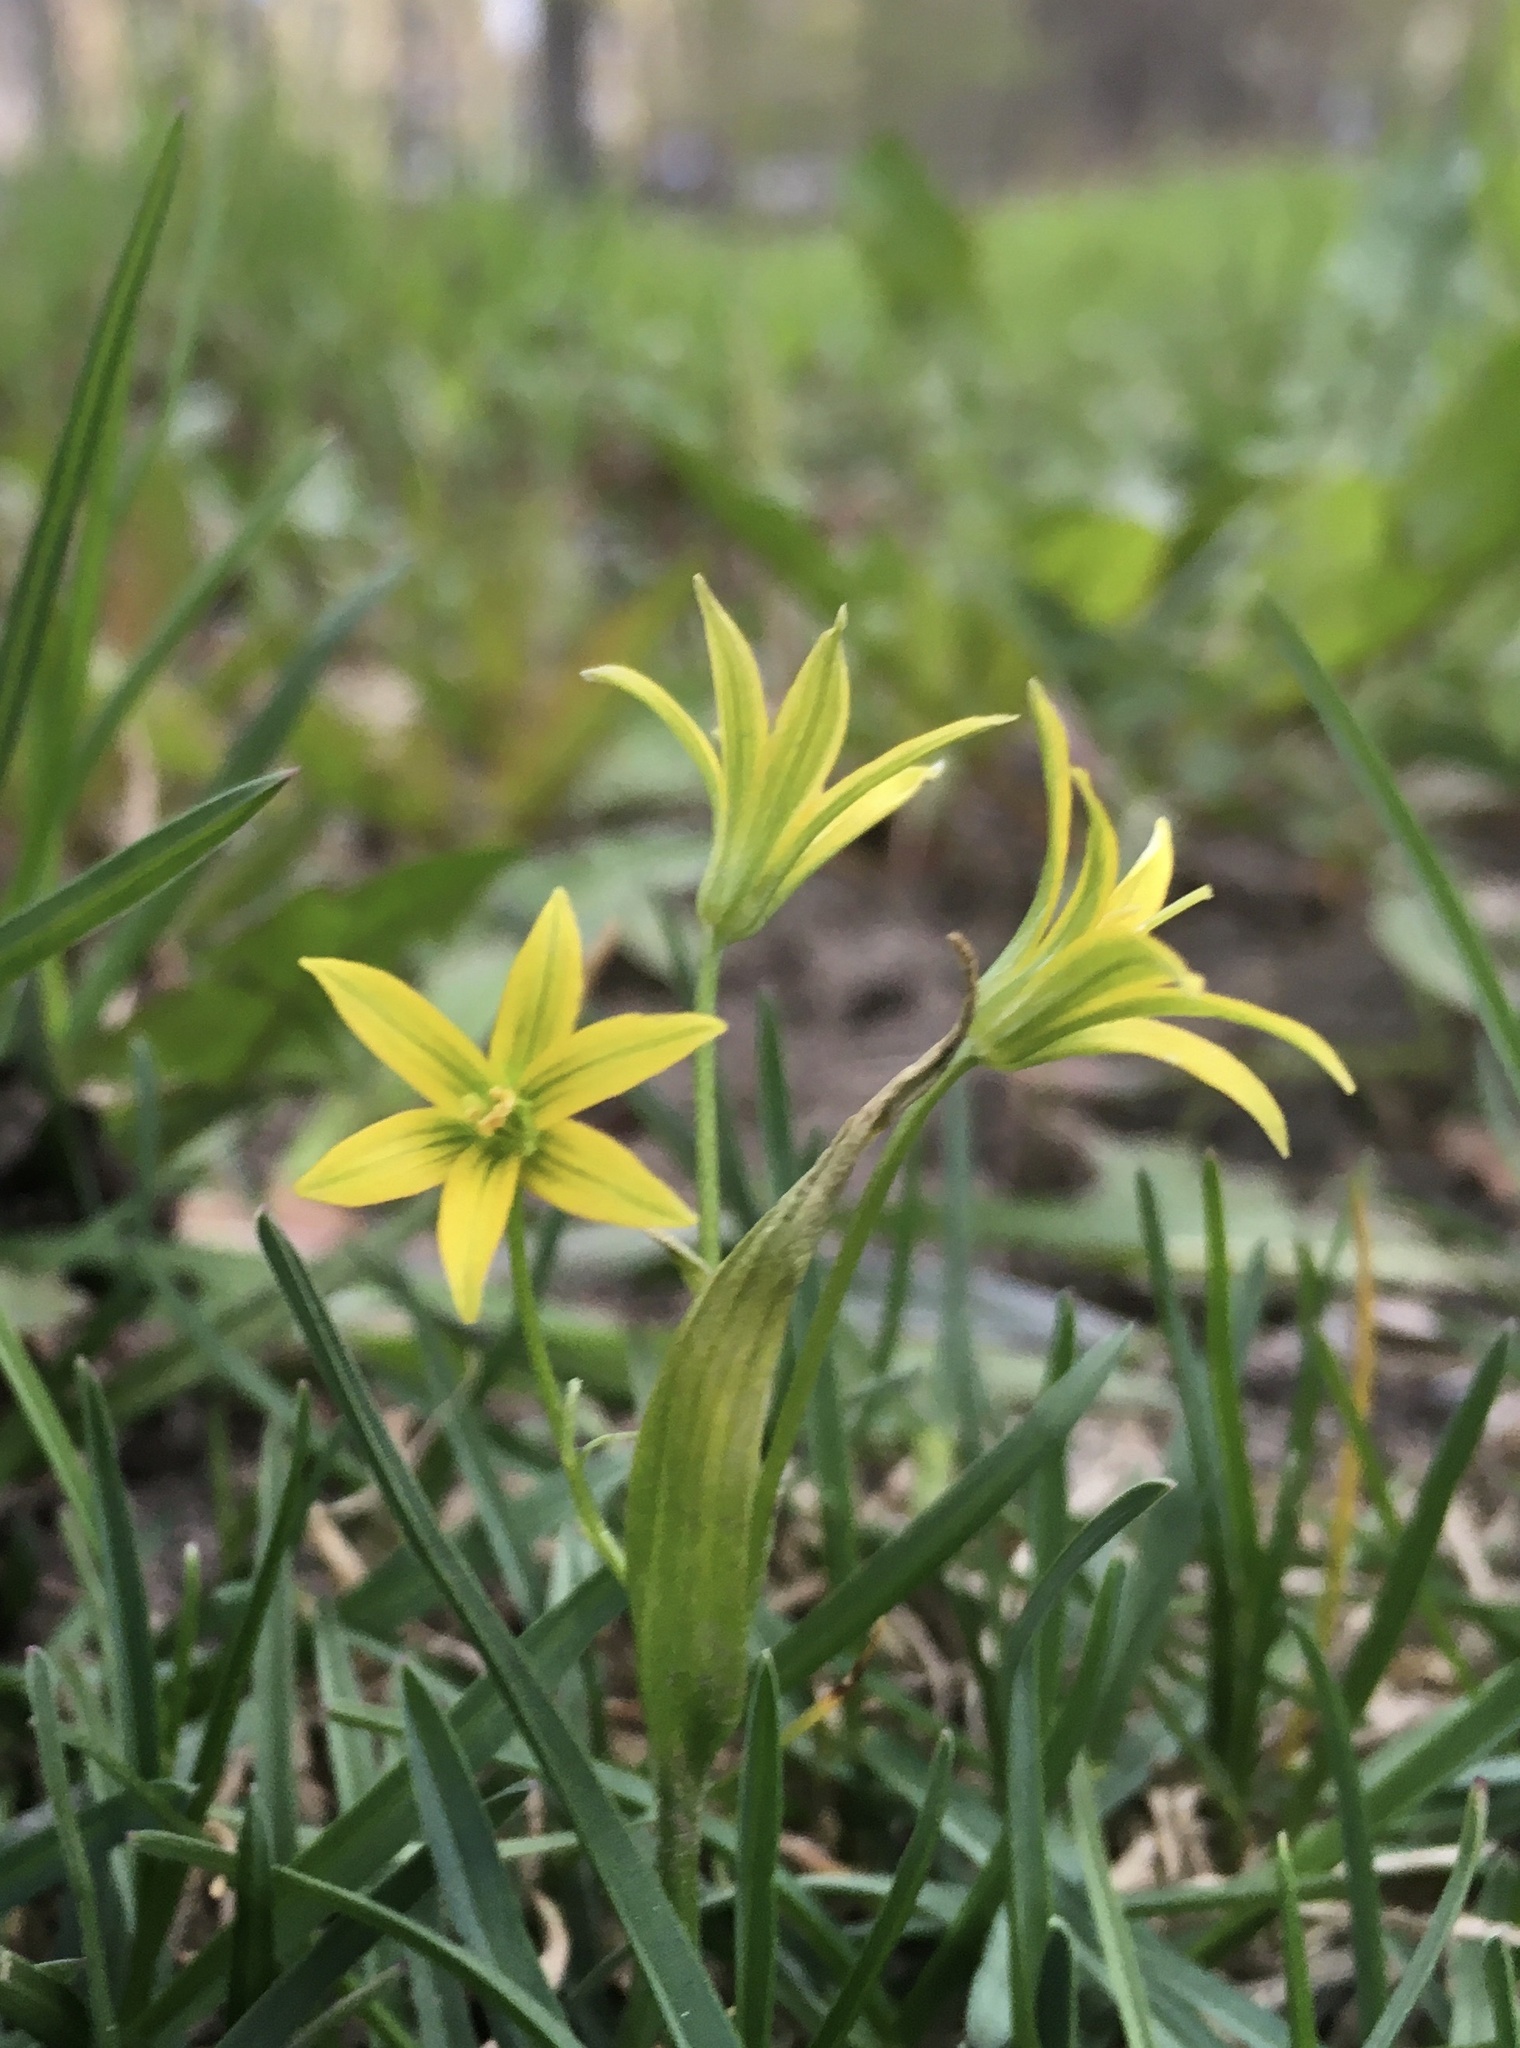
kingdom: Plantae
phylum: Tracheophyta
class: Liliopsida
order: Liliales
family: Liliaceae
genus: Gagea
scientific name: Gagea minima
